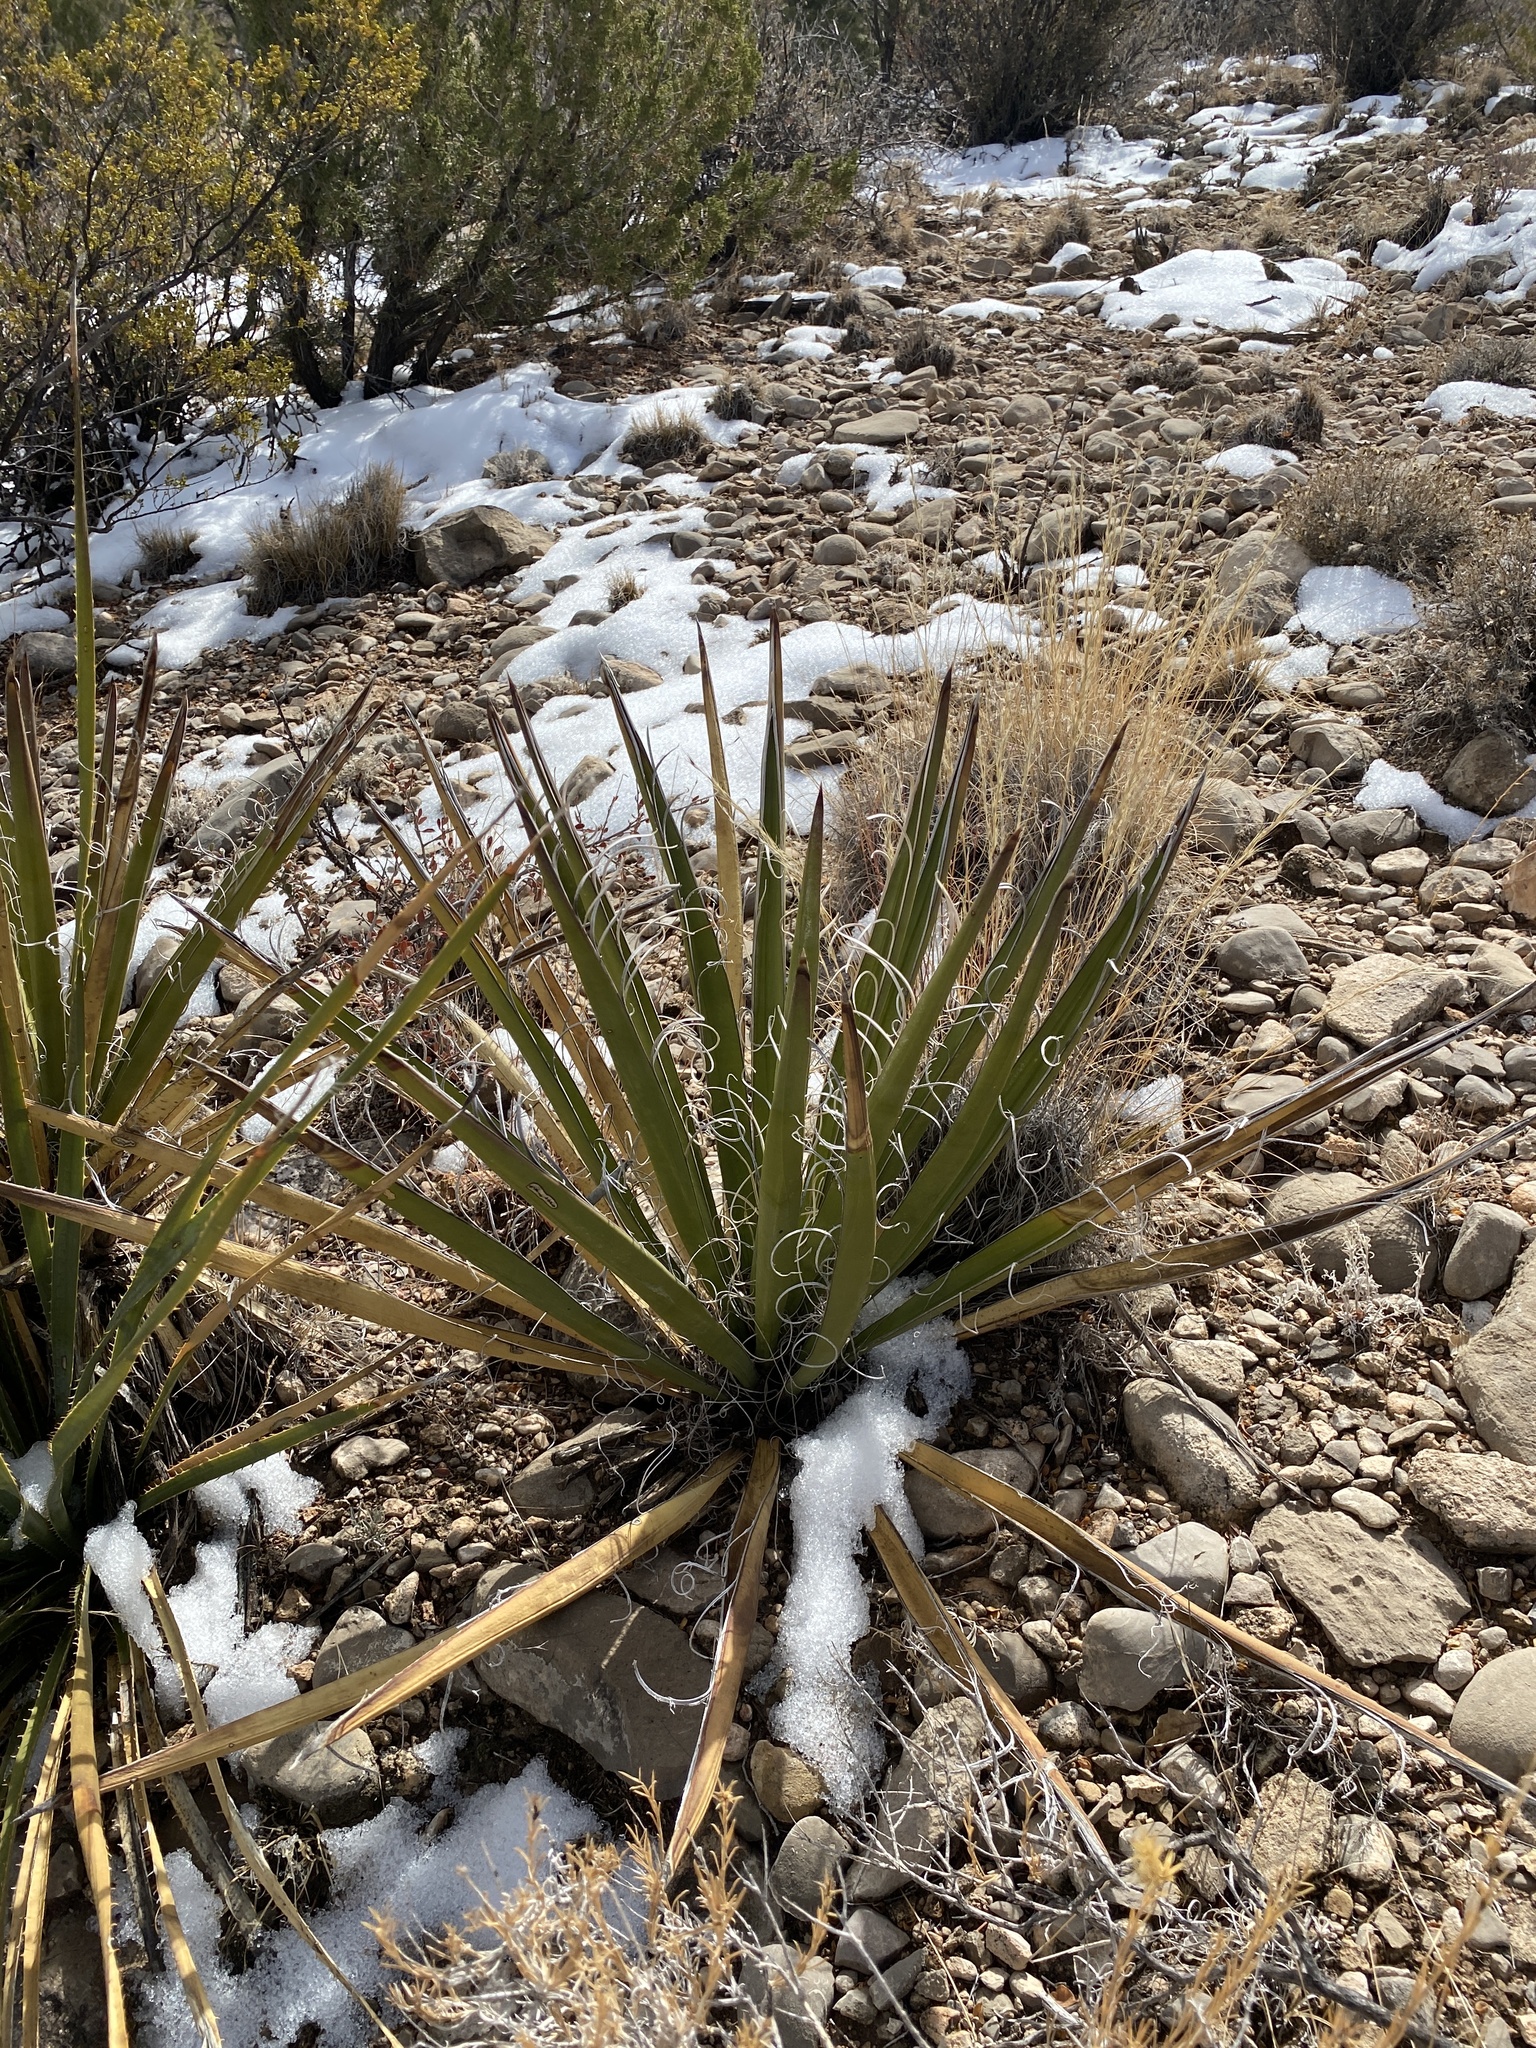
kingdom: Plantae
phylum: Tracheophyta
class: Liliopsida
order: Asparagales
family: Asparagaceae
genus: Yucca
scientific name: Yucca baccata
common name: Banana yucca
